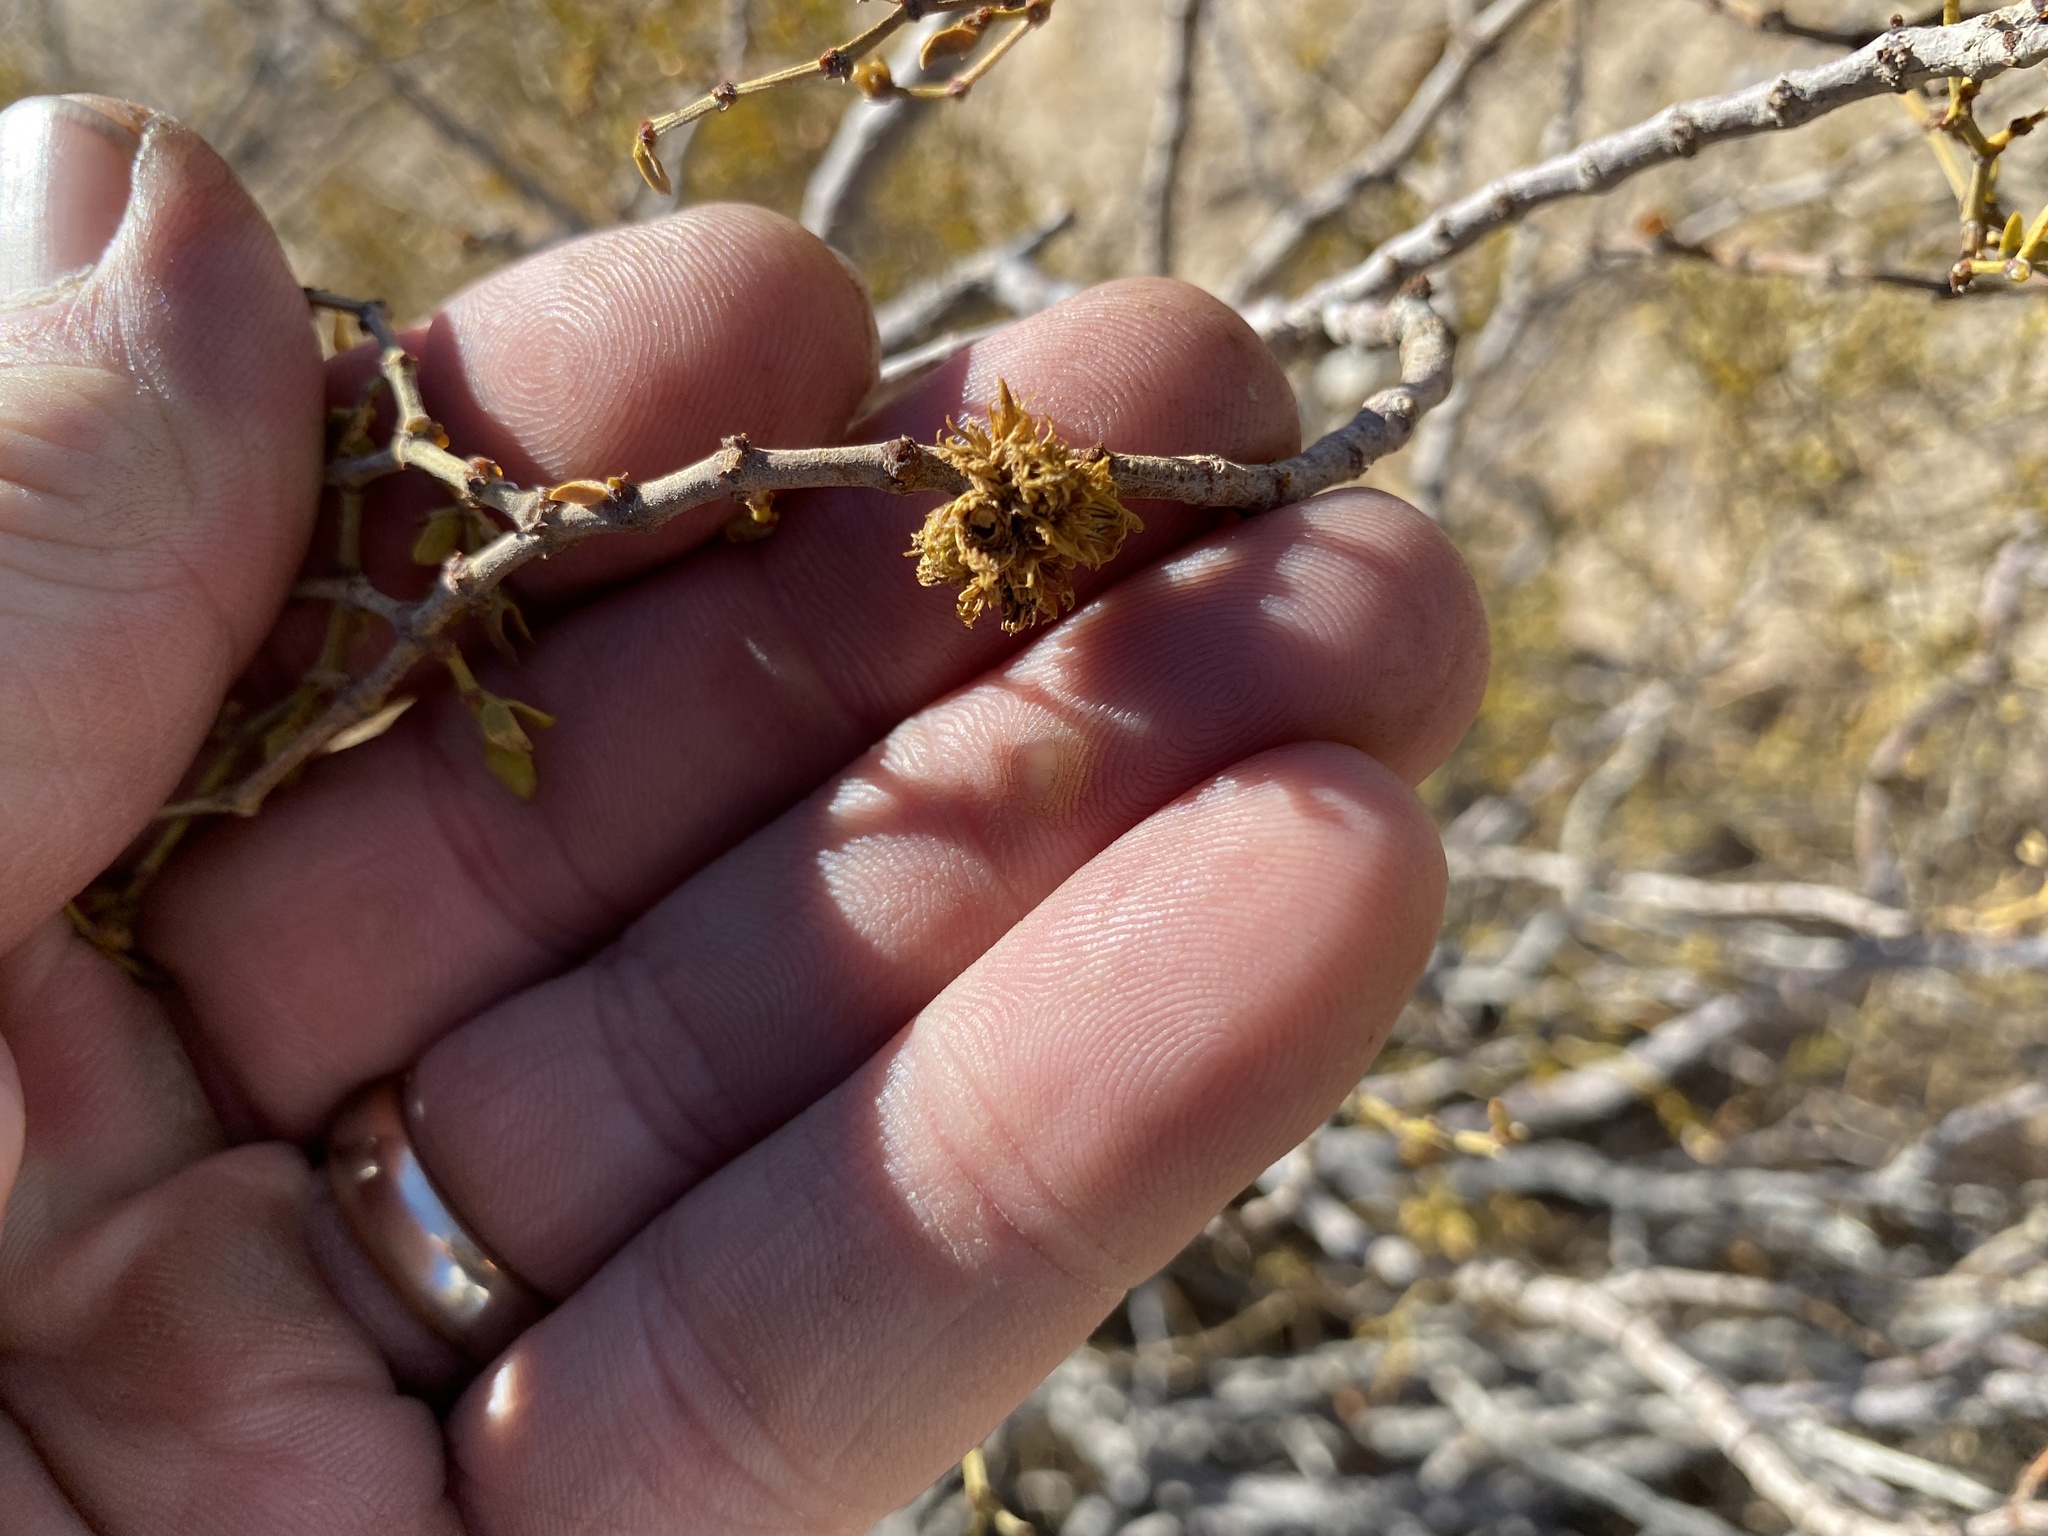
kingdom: Animalia
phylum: Arthropoda
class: Insecta
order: Diptera
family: Cecidomyiidae
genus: Asphondylia
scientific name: Asphondylia auripila
